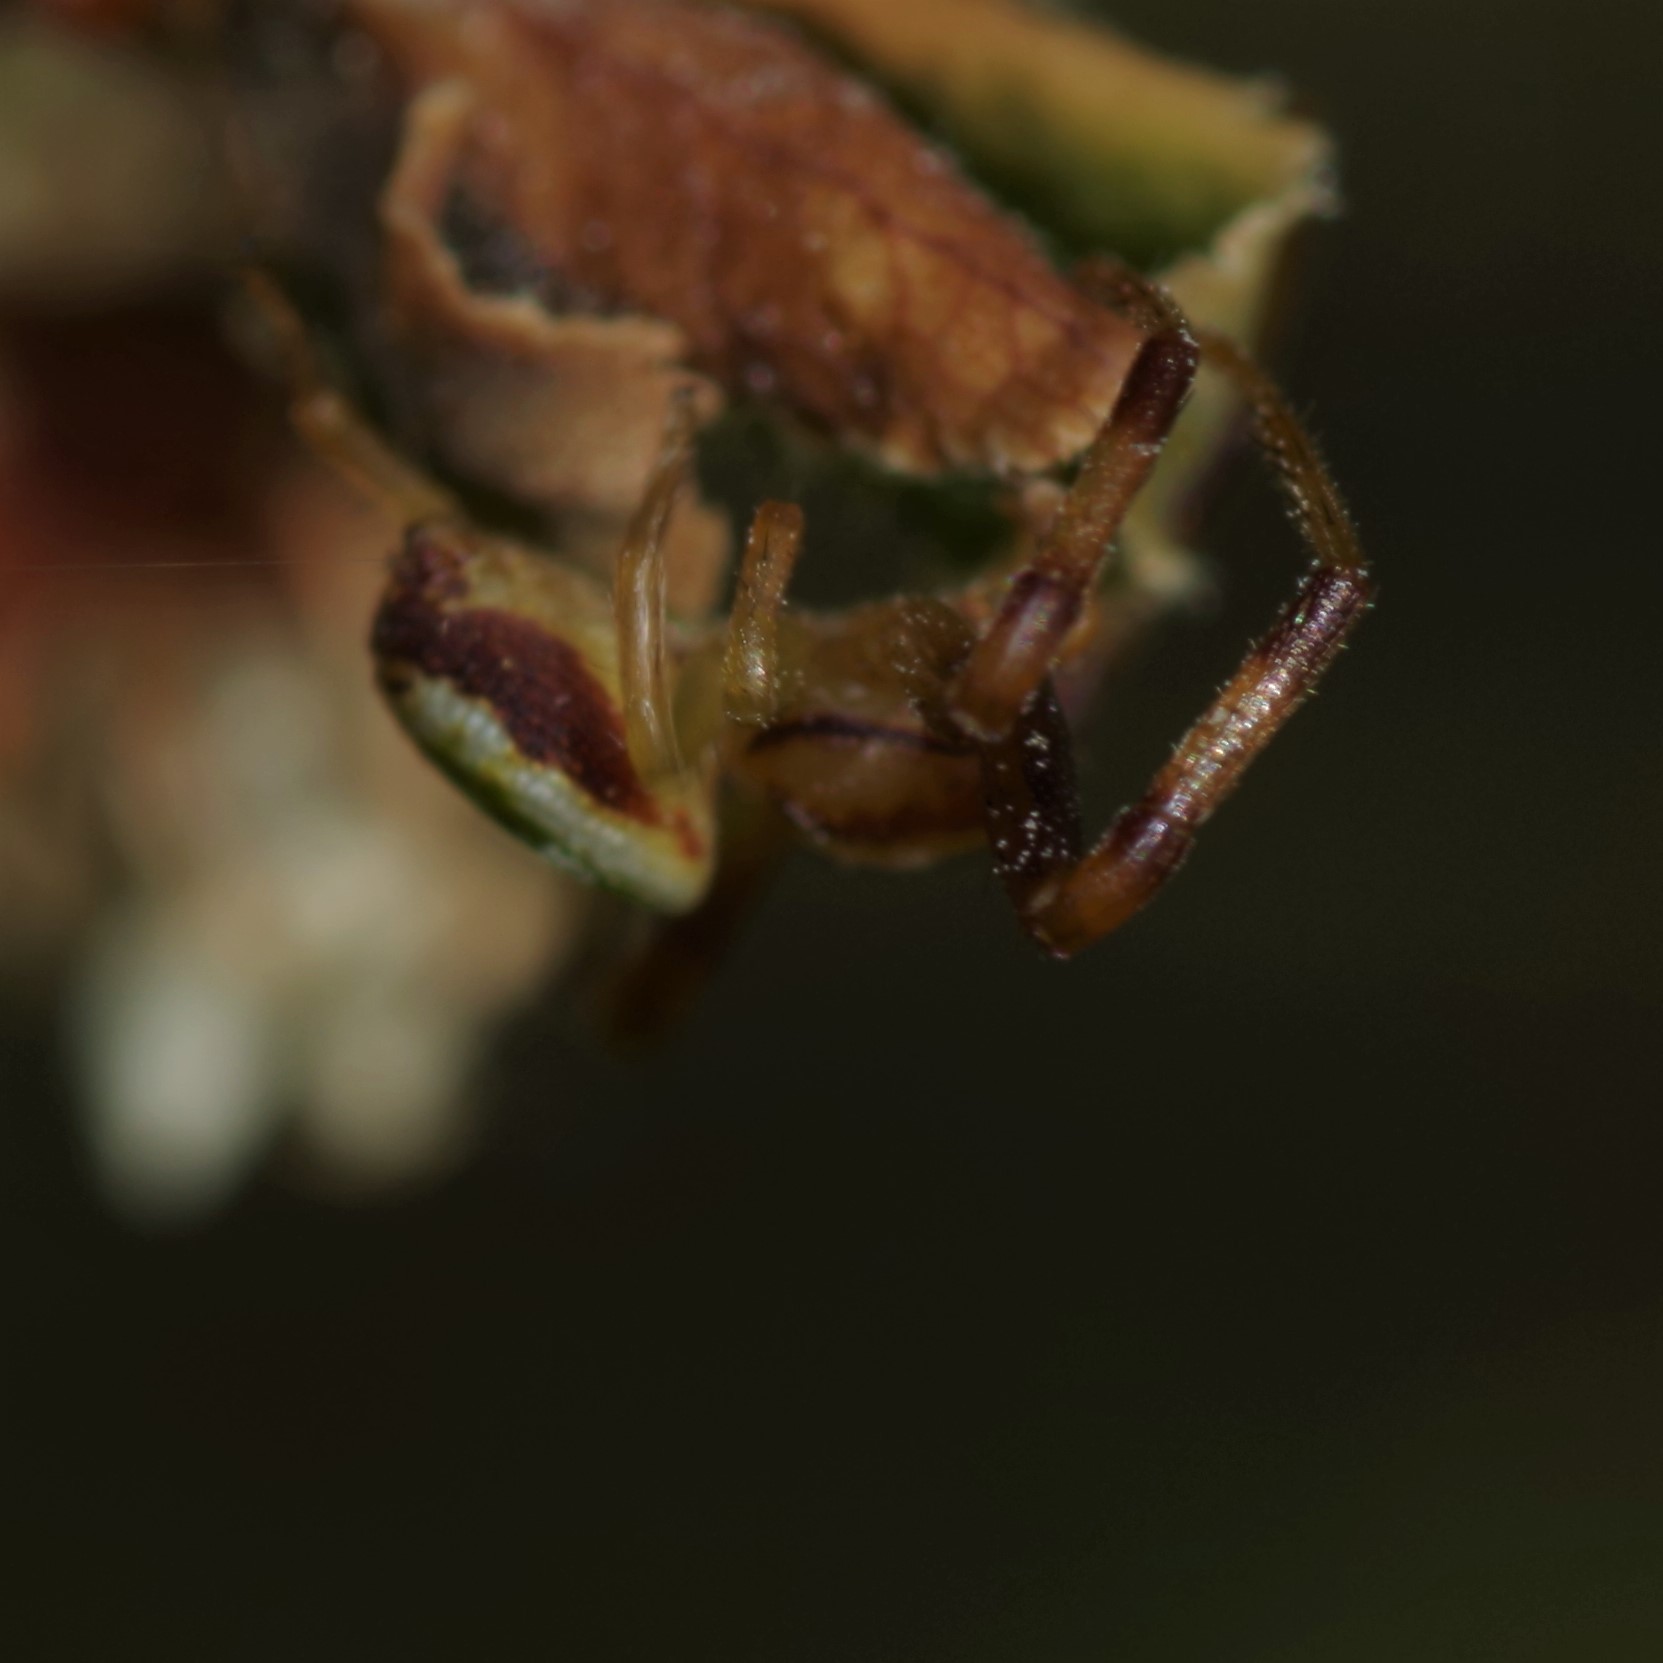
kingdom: Animalia
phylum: Arthropoda
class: Arachnida
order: Araneae
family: Thomisidae
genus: Ebrechtella
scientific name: Ebrechtella tricuspidata
